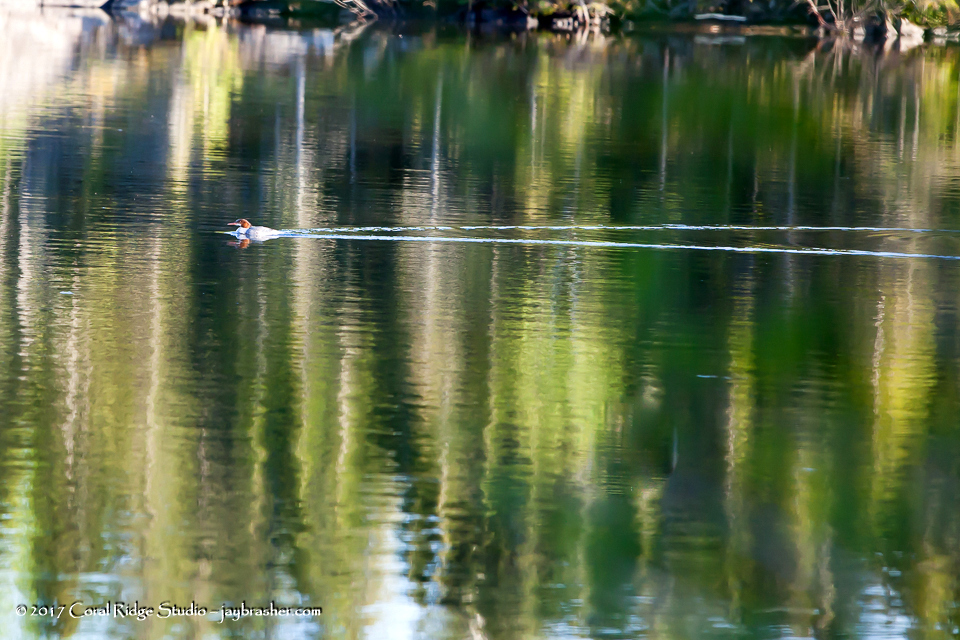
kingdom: Animalia
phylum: Chordata
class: Aves
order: Anseriformes
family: Anatidae
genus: Mergus
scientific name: Mergus merganser
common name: Common merganser
